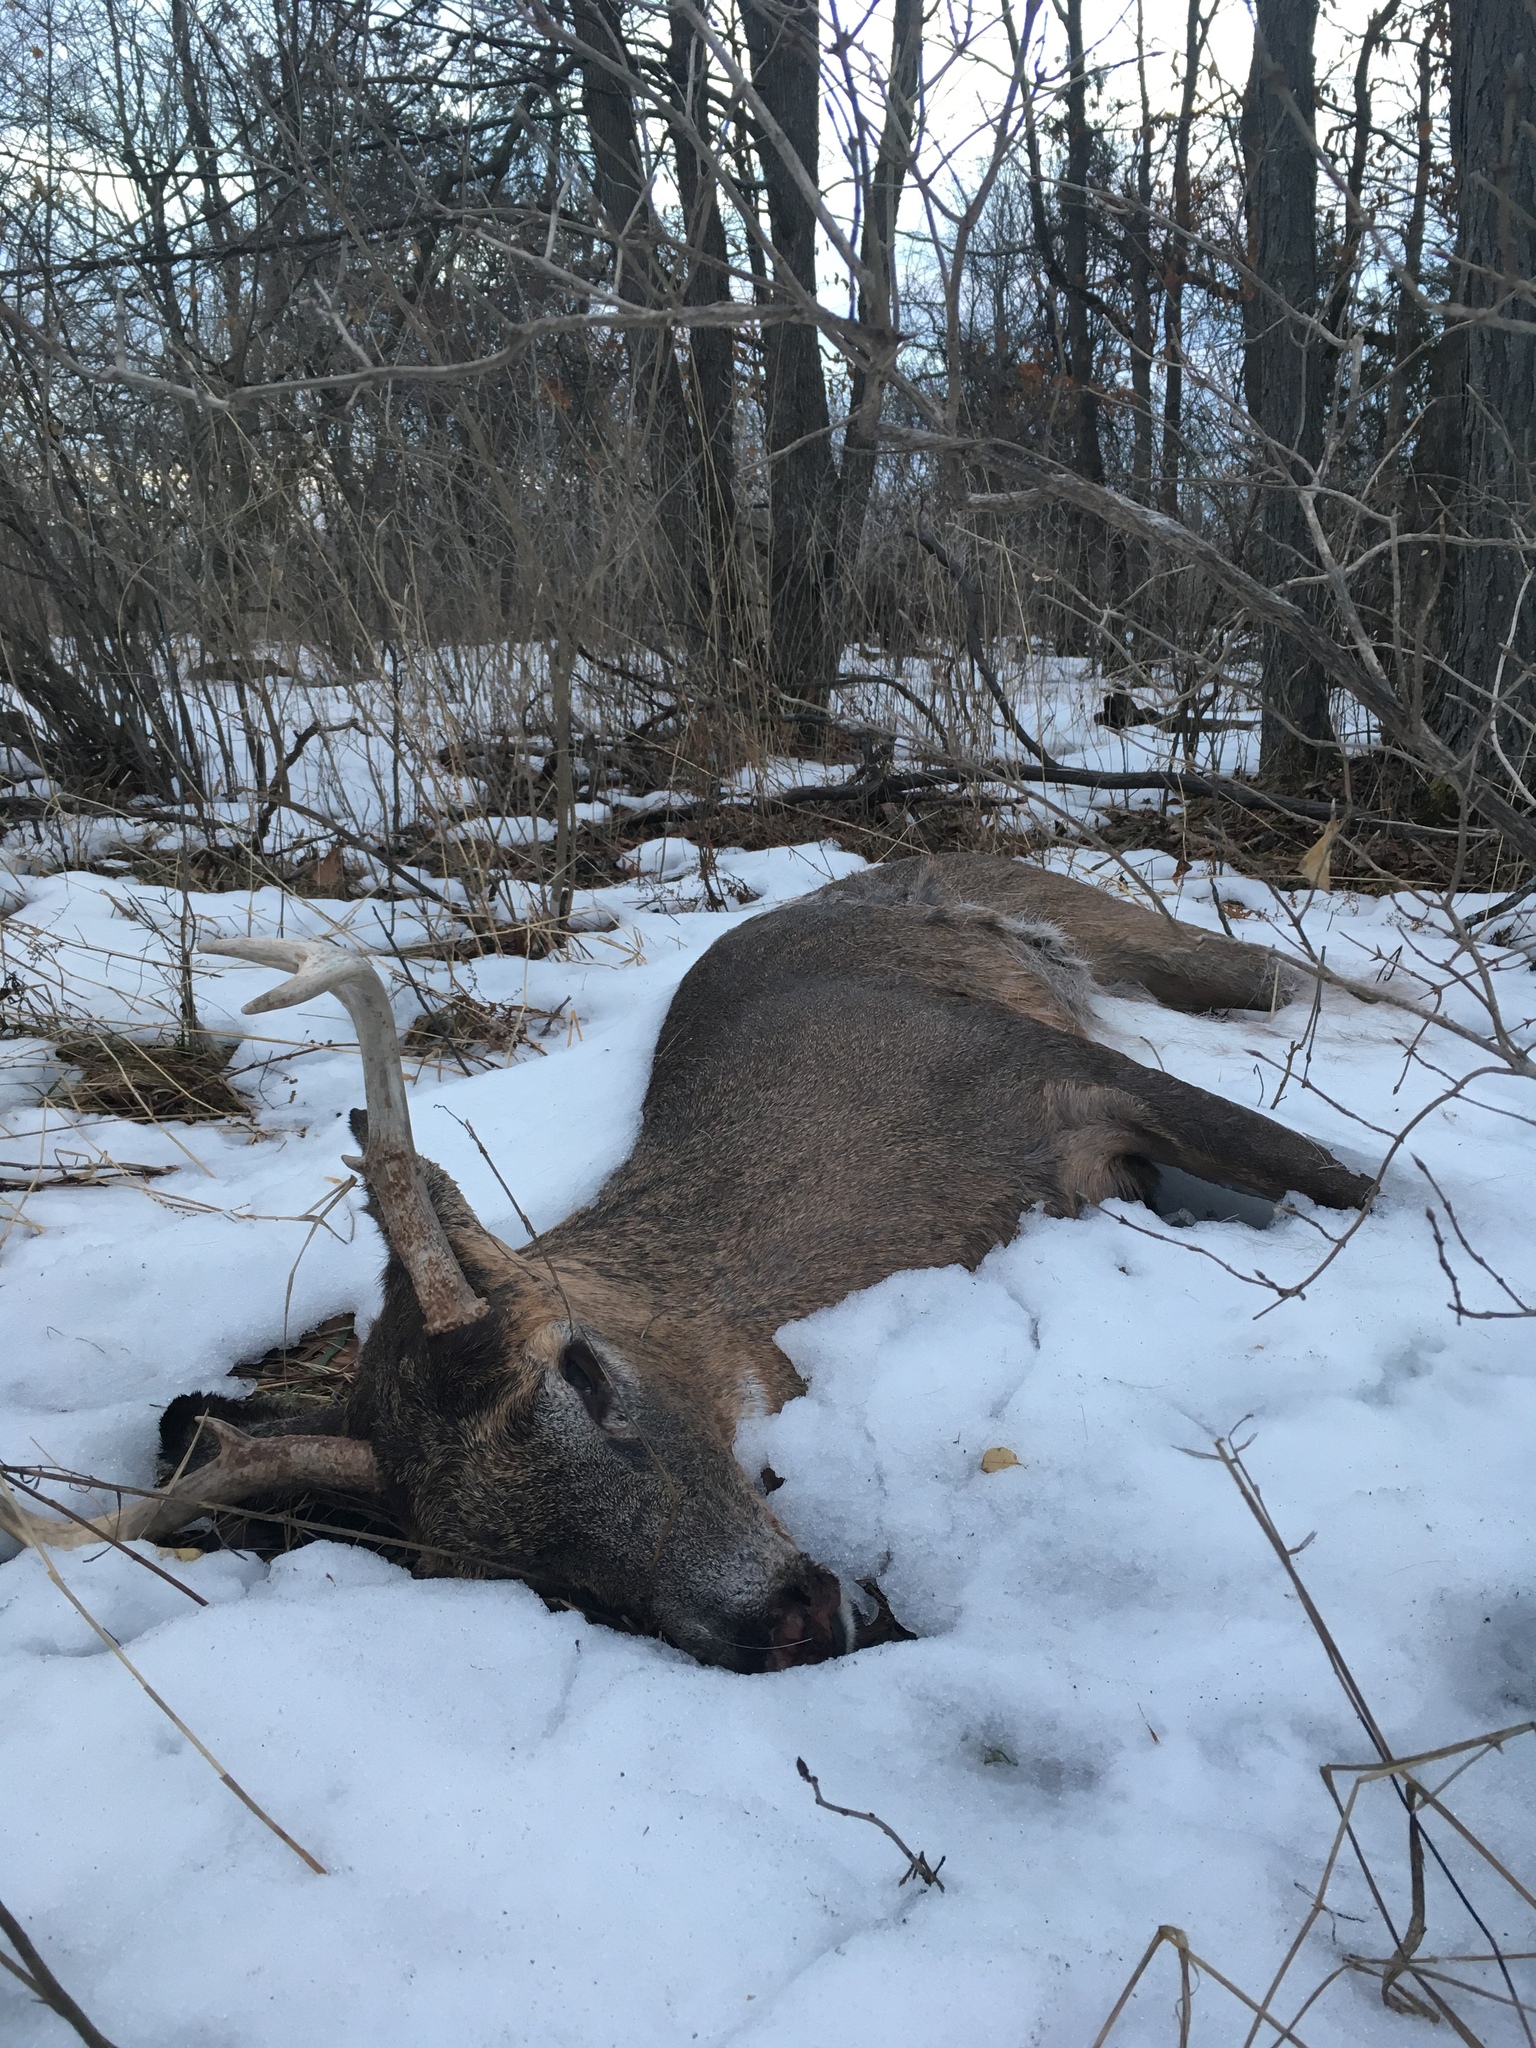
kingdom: Animalia
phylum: Chordata
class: Mammalia
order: Artiodactyla
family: Cervidae
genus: Odocoileus
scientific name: Odocoileus virginianus
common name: White-tailed deer
